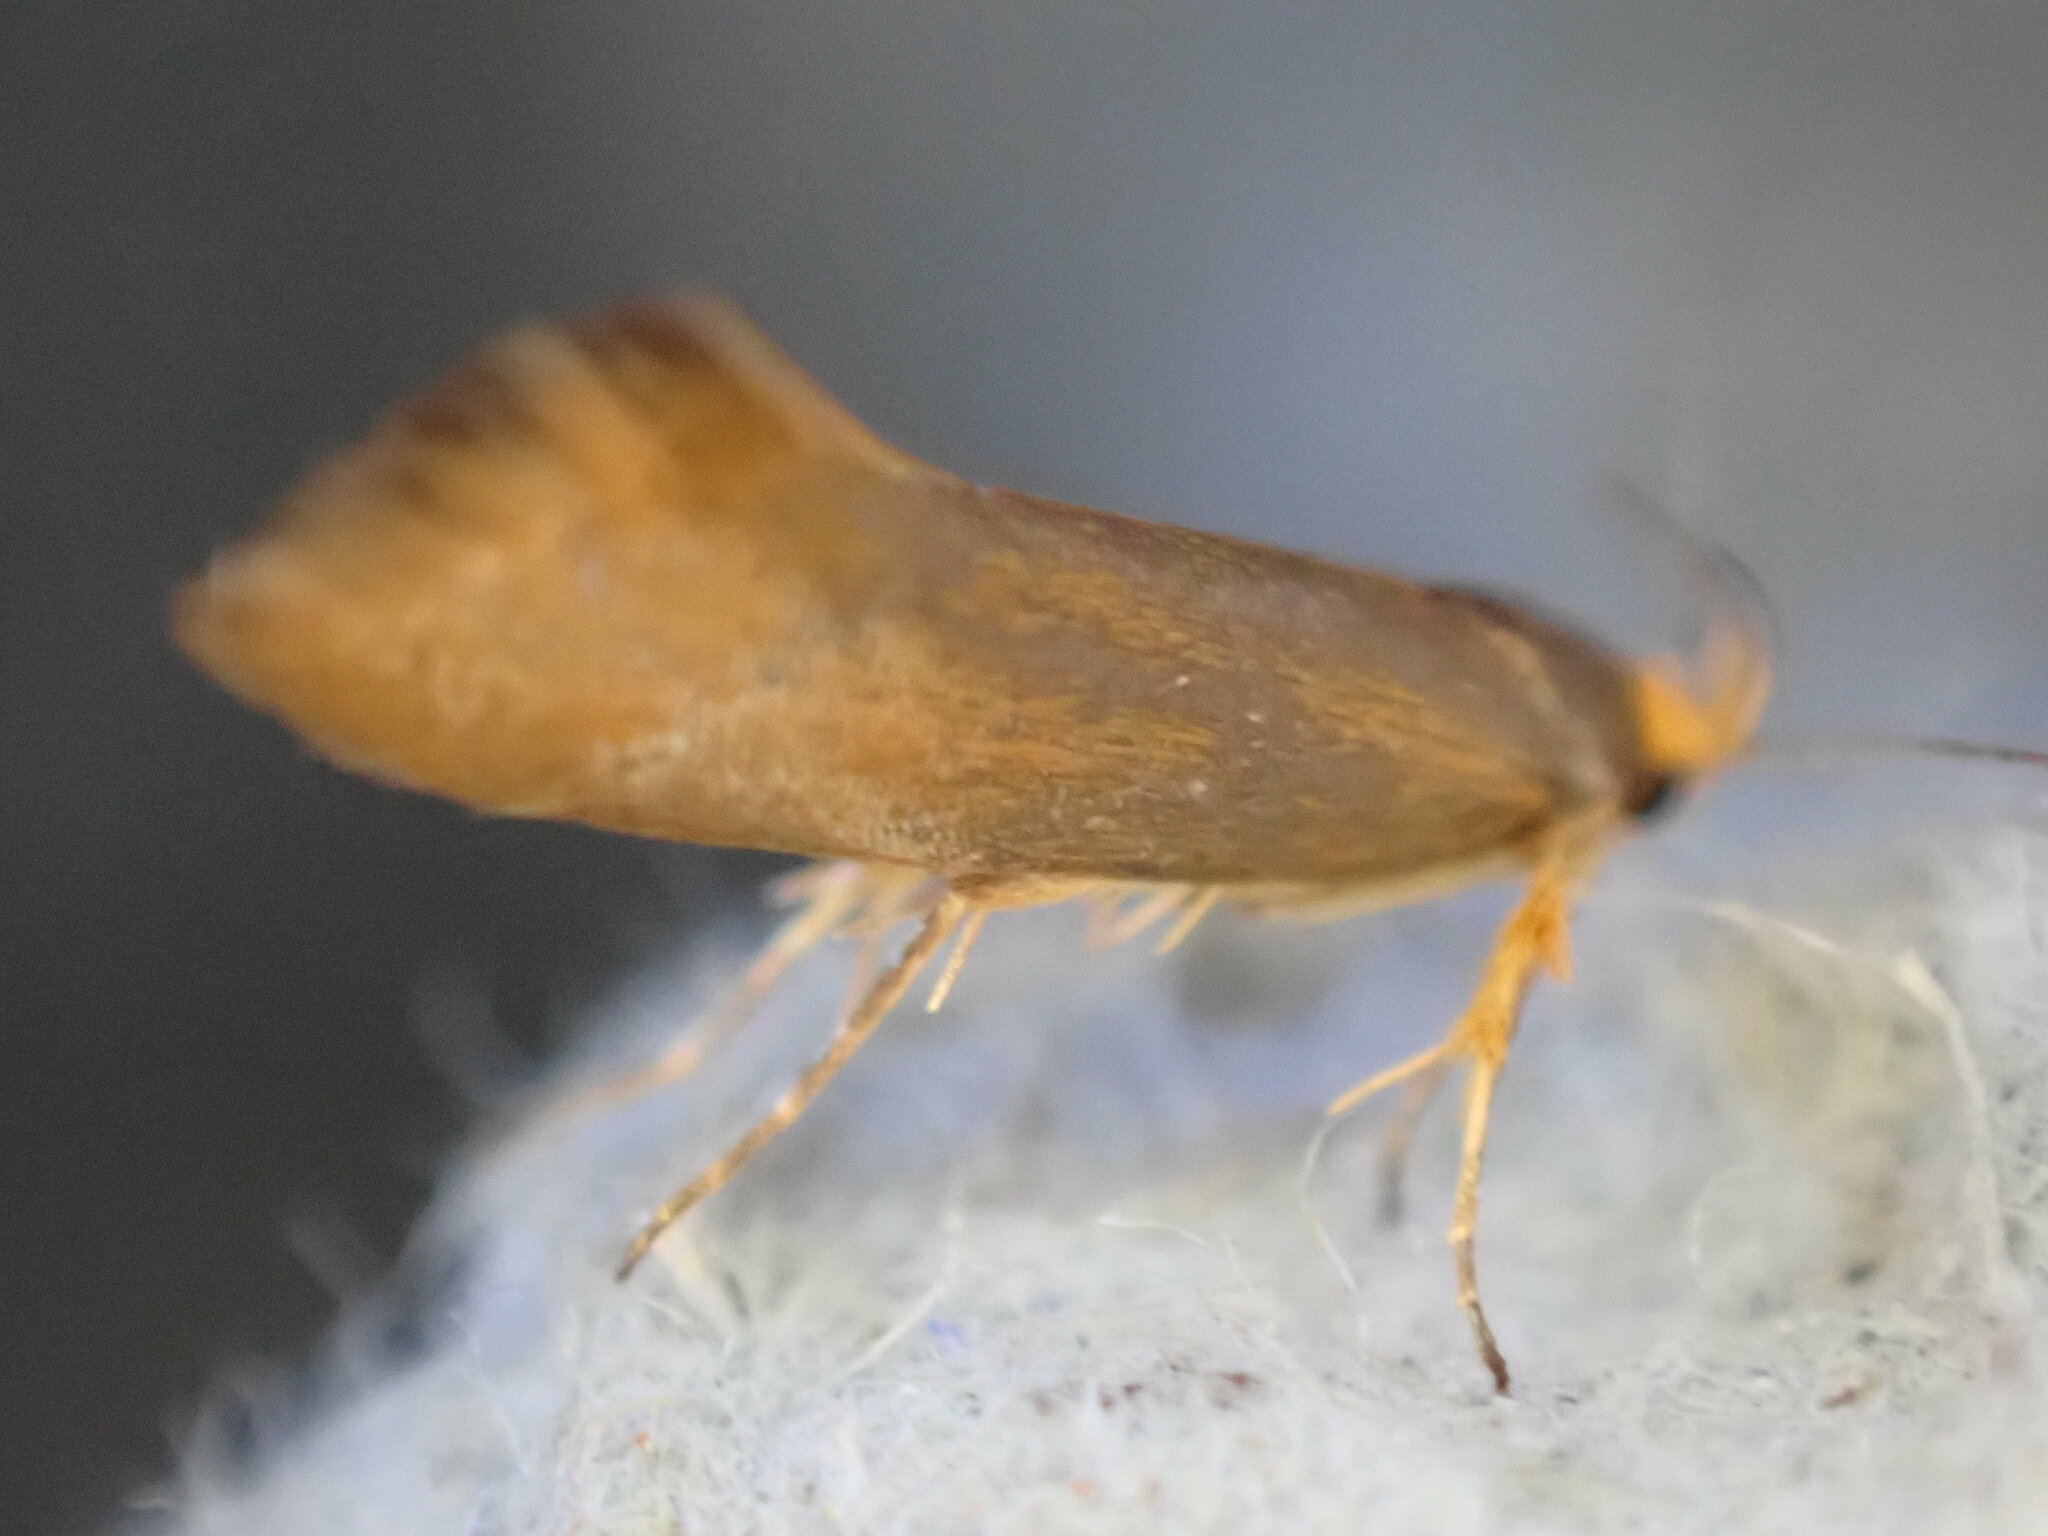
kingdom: Animalia
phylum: Arthropoda
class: Insecta
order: Lepidoptera
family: Oecophoridae
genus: Borkhausenia
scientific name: Borkhausenia Crassa unitella
